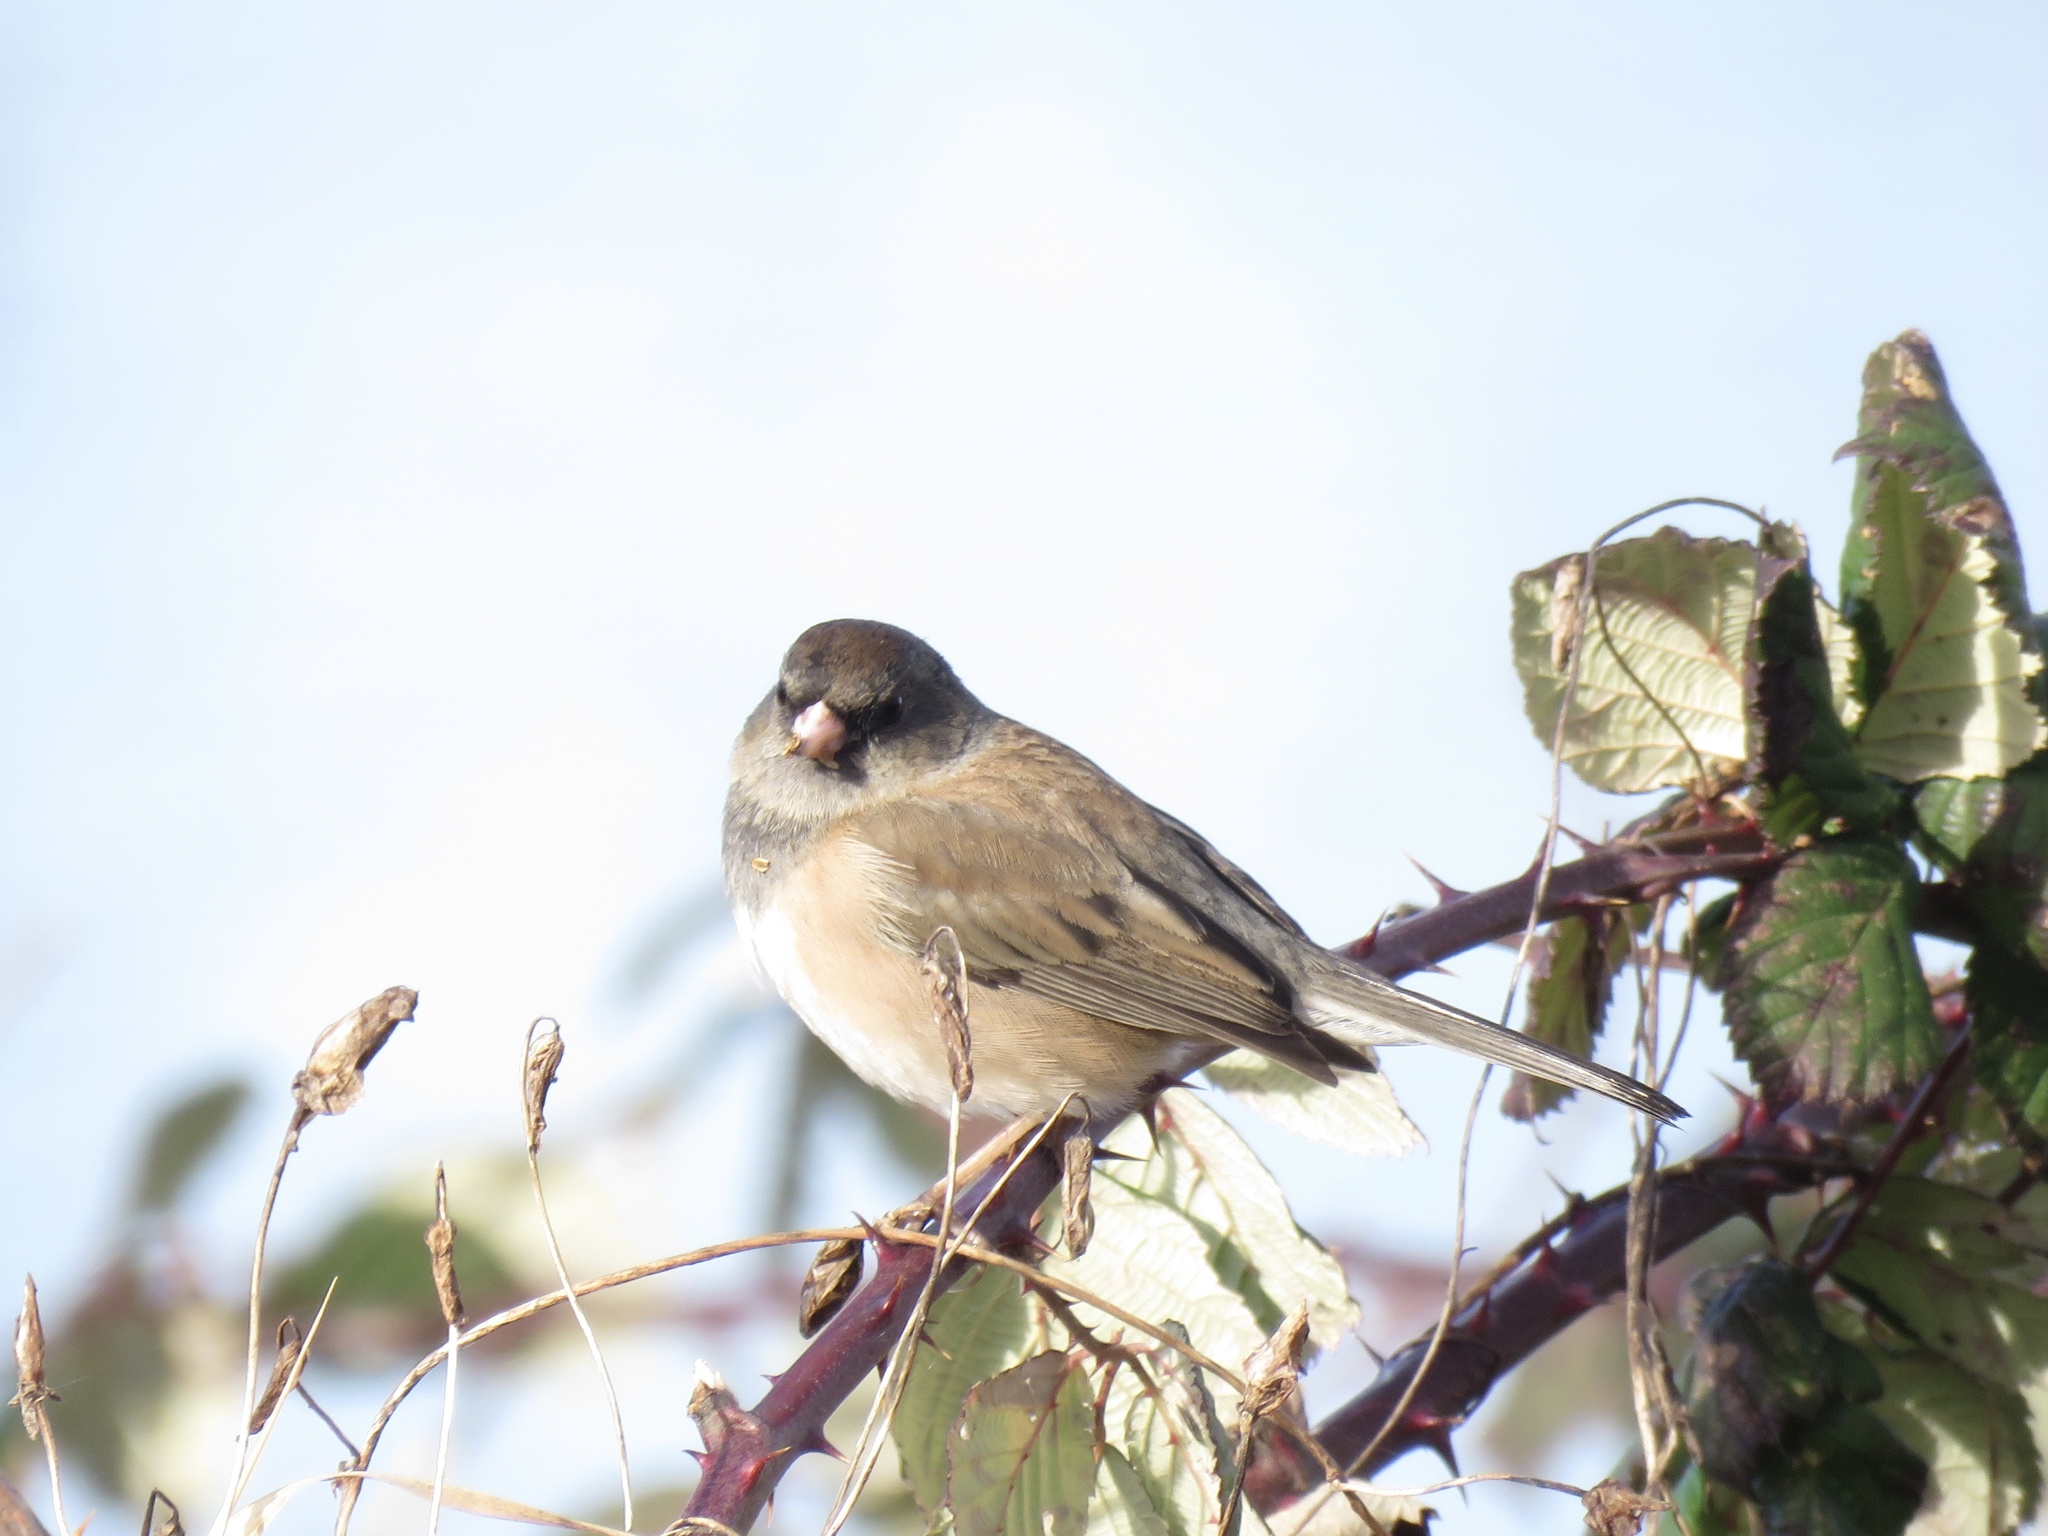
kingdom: Animalia
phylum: Chordata
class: Aves
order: Passeriformes
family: Passerellidae
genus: Junco
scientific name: Junco hyemalis
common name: Dark-eyed junco
